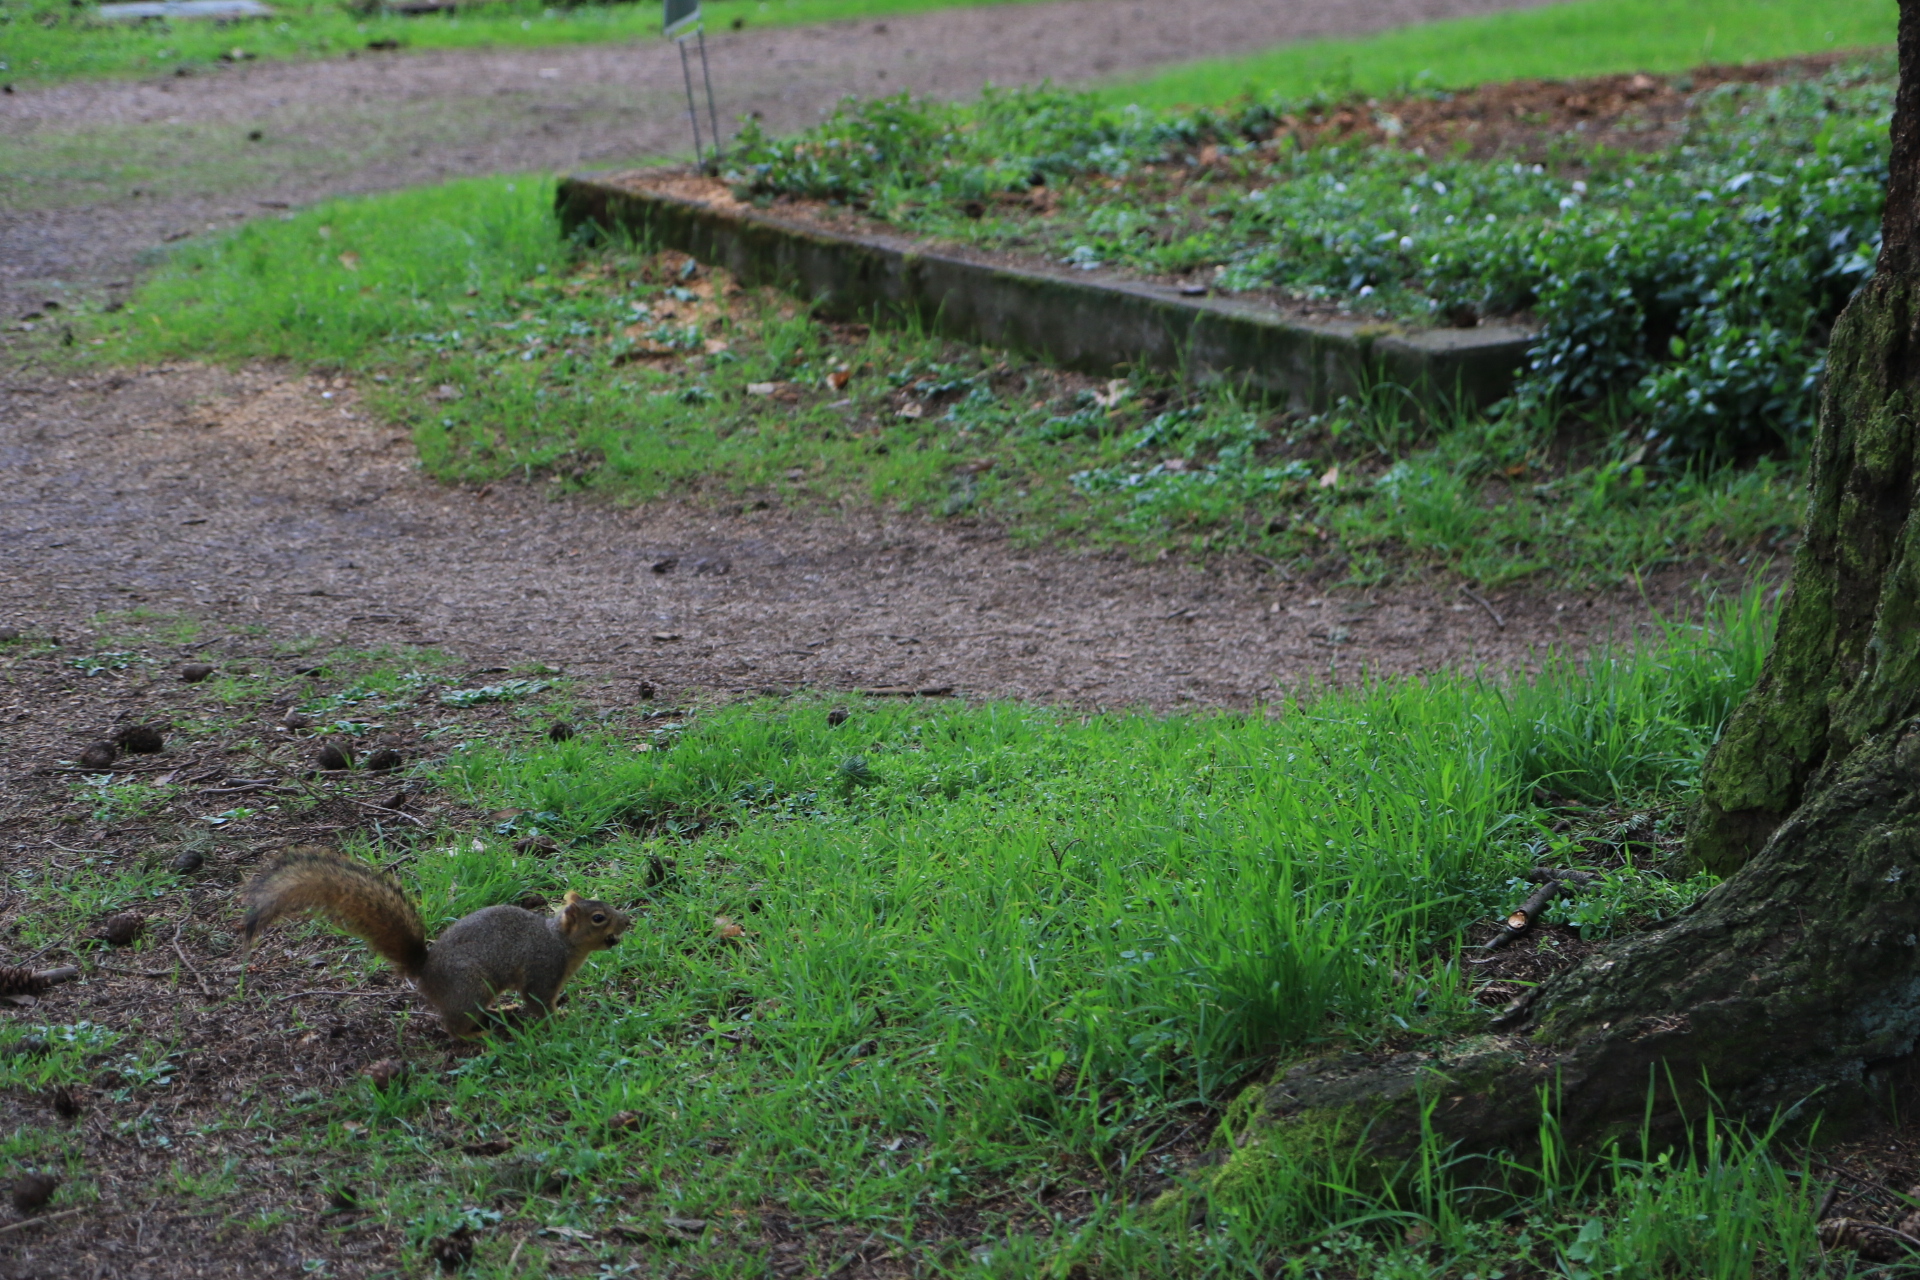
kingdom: Animalia
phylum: Chordata
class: Mammalia
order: Rodentia
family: Sciuridae
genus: Sciurus
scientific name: Sciurus niger
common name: Fox squirrel
